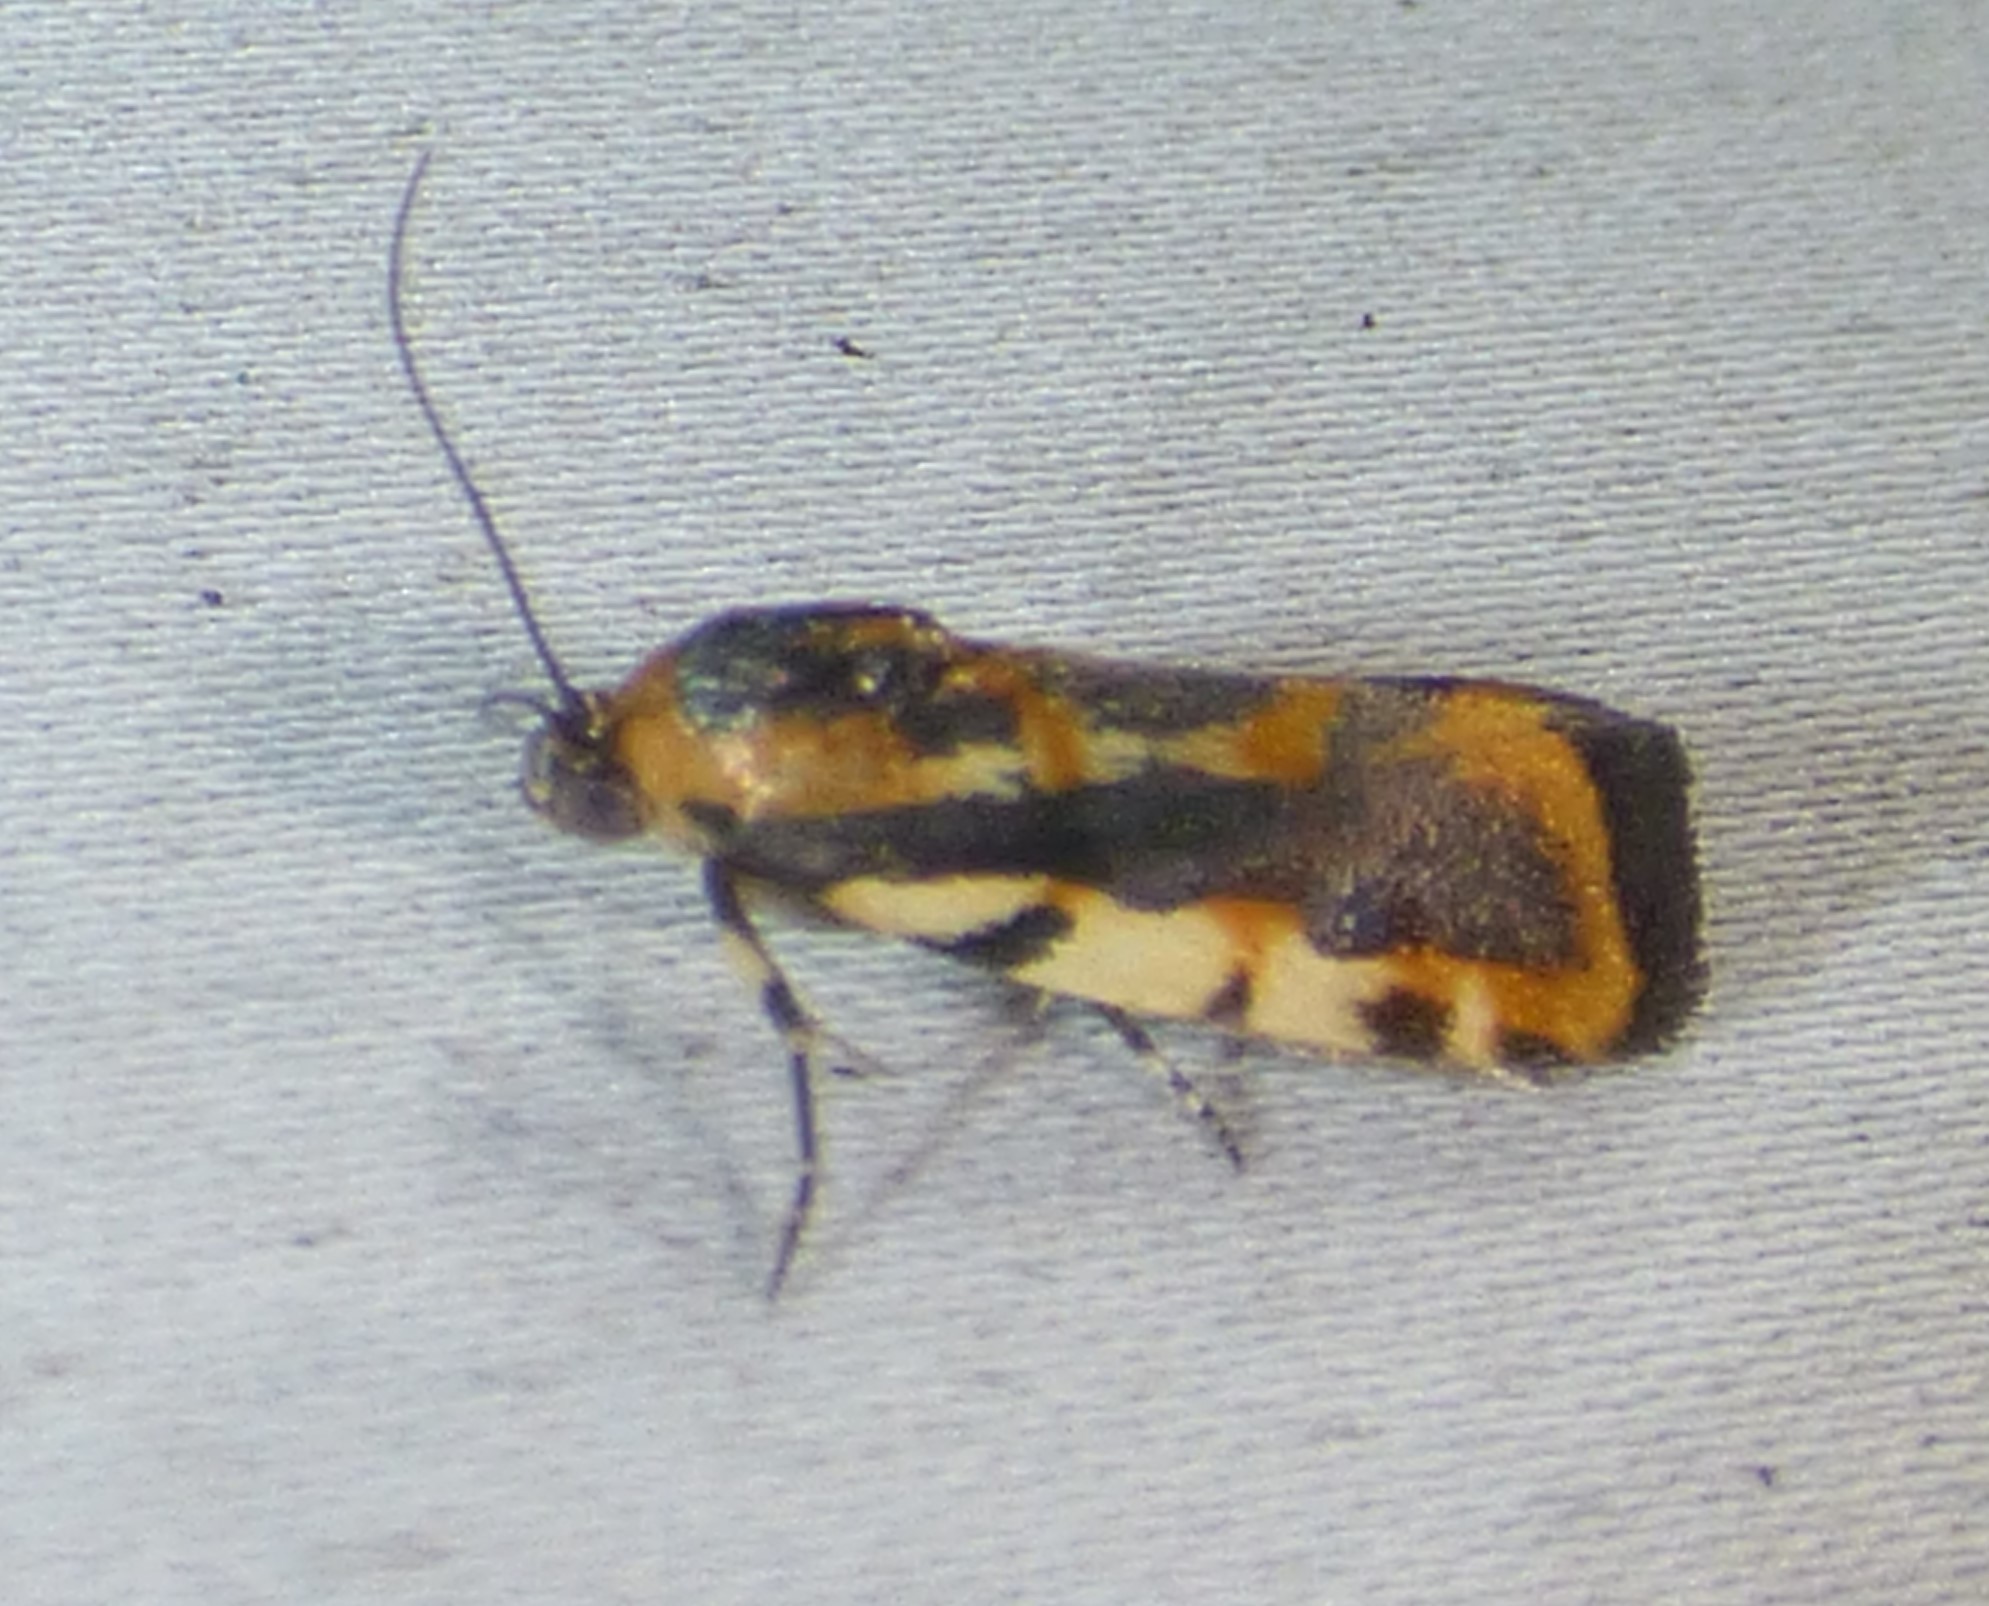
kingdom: Animalia
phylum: Arthropoda
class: Insecta
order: Lepidoptera
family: Noctuidae
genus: Acontia
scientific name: Acontia leo
